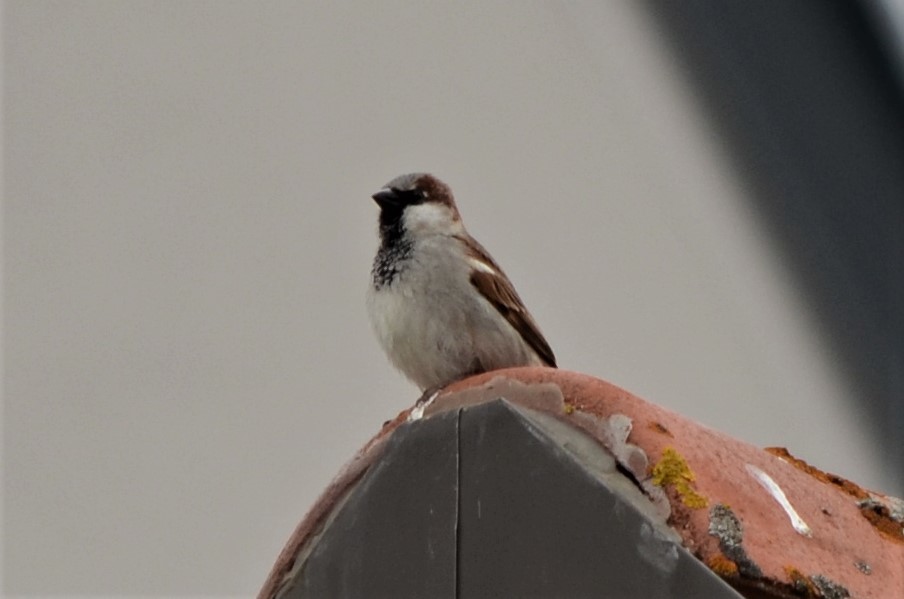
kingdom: Animalia
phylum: Chordata
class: Aves
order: Passeriformes
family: Passeridae
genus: Passer
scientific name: Passer domesticus
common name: House sparrow
